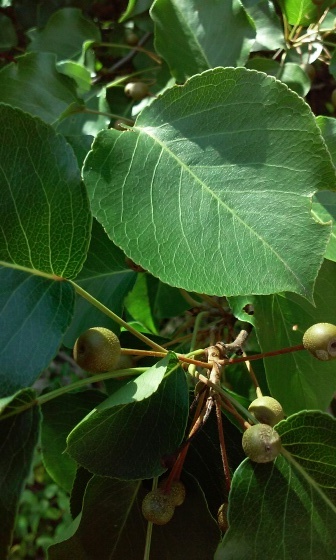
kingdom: Plantae
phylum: Tracheophyta
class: Magnoliopsida
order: Rosales
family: Rosaceae
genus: Pyrus
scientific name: Pyrus calleryana
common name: Callery pear
